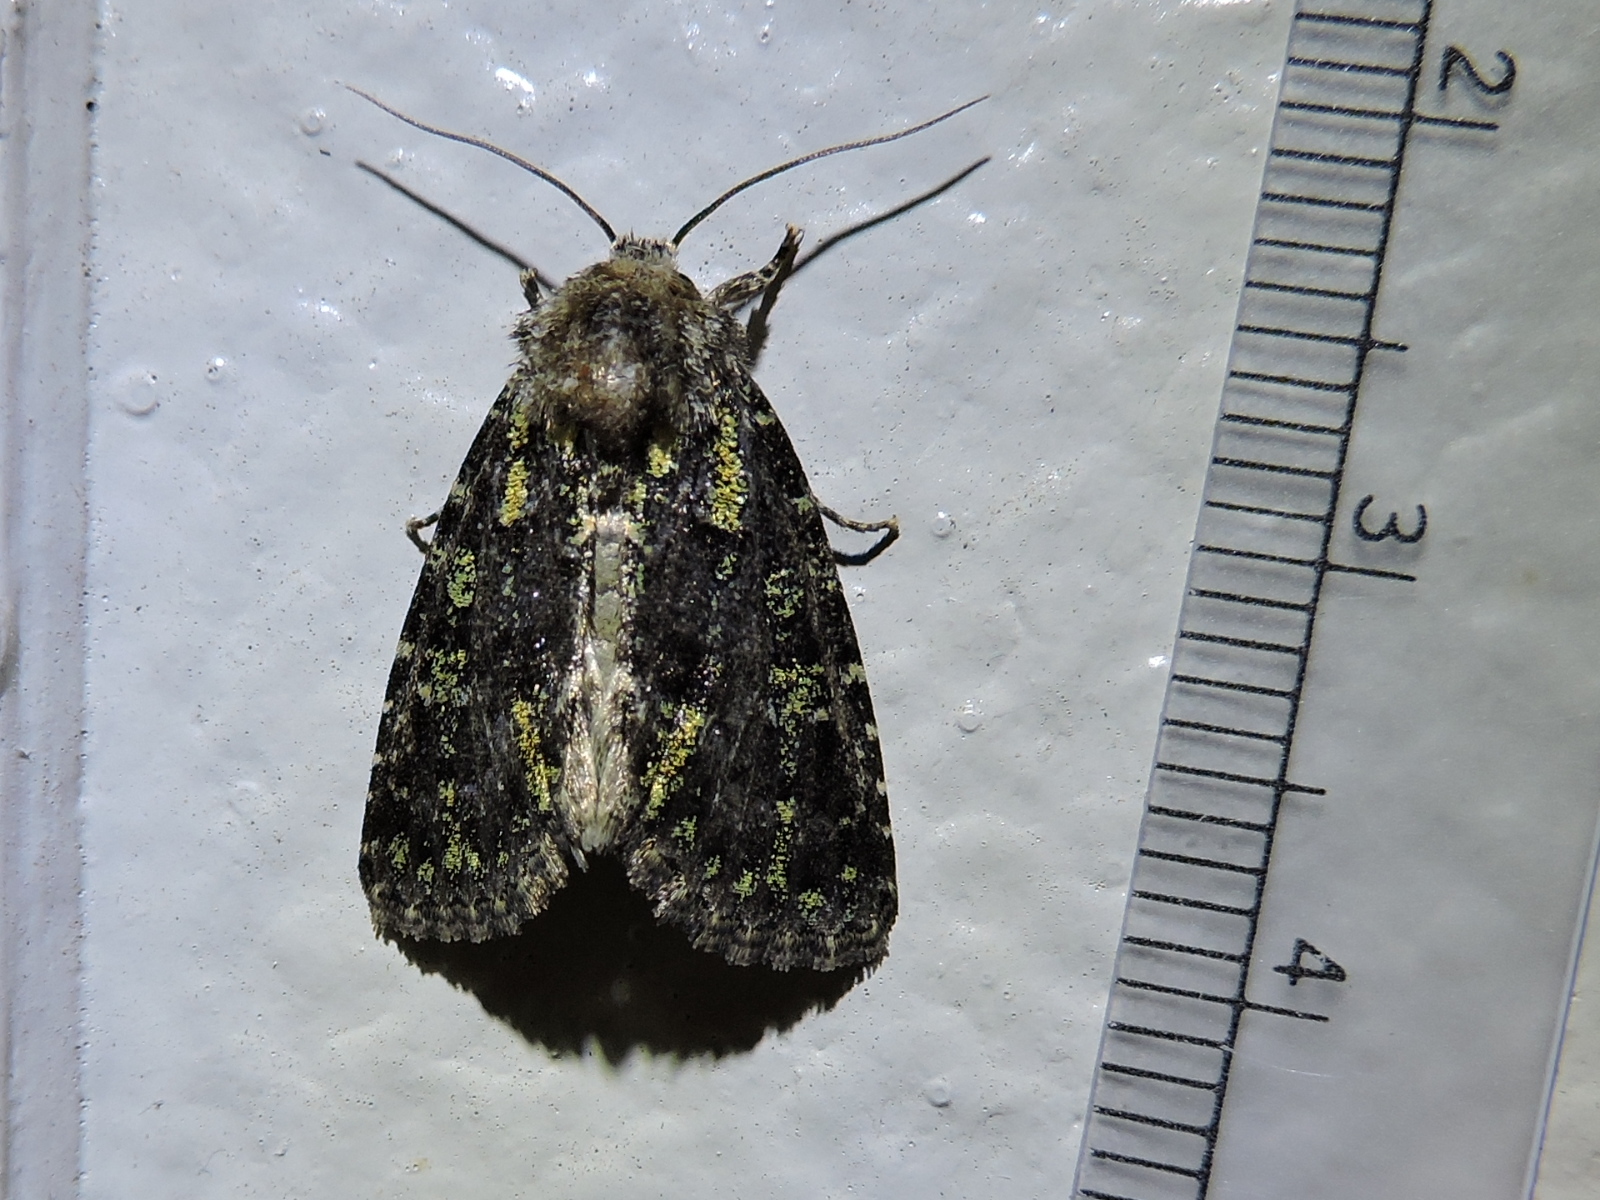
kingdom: Animalia
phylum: Arthropoda
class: Insecta
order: Lepidoptera
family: Noctuidae
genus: Paramiana
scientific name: Paramiana smaragdina
